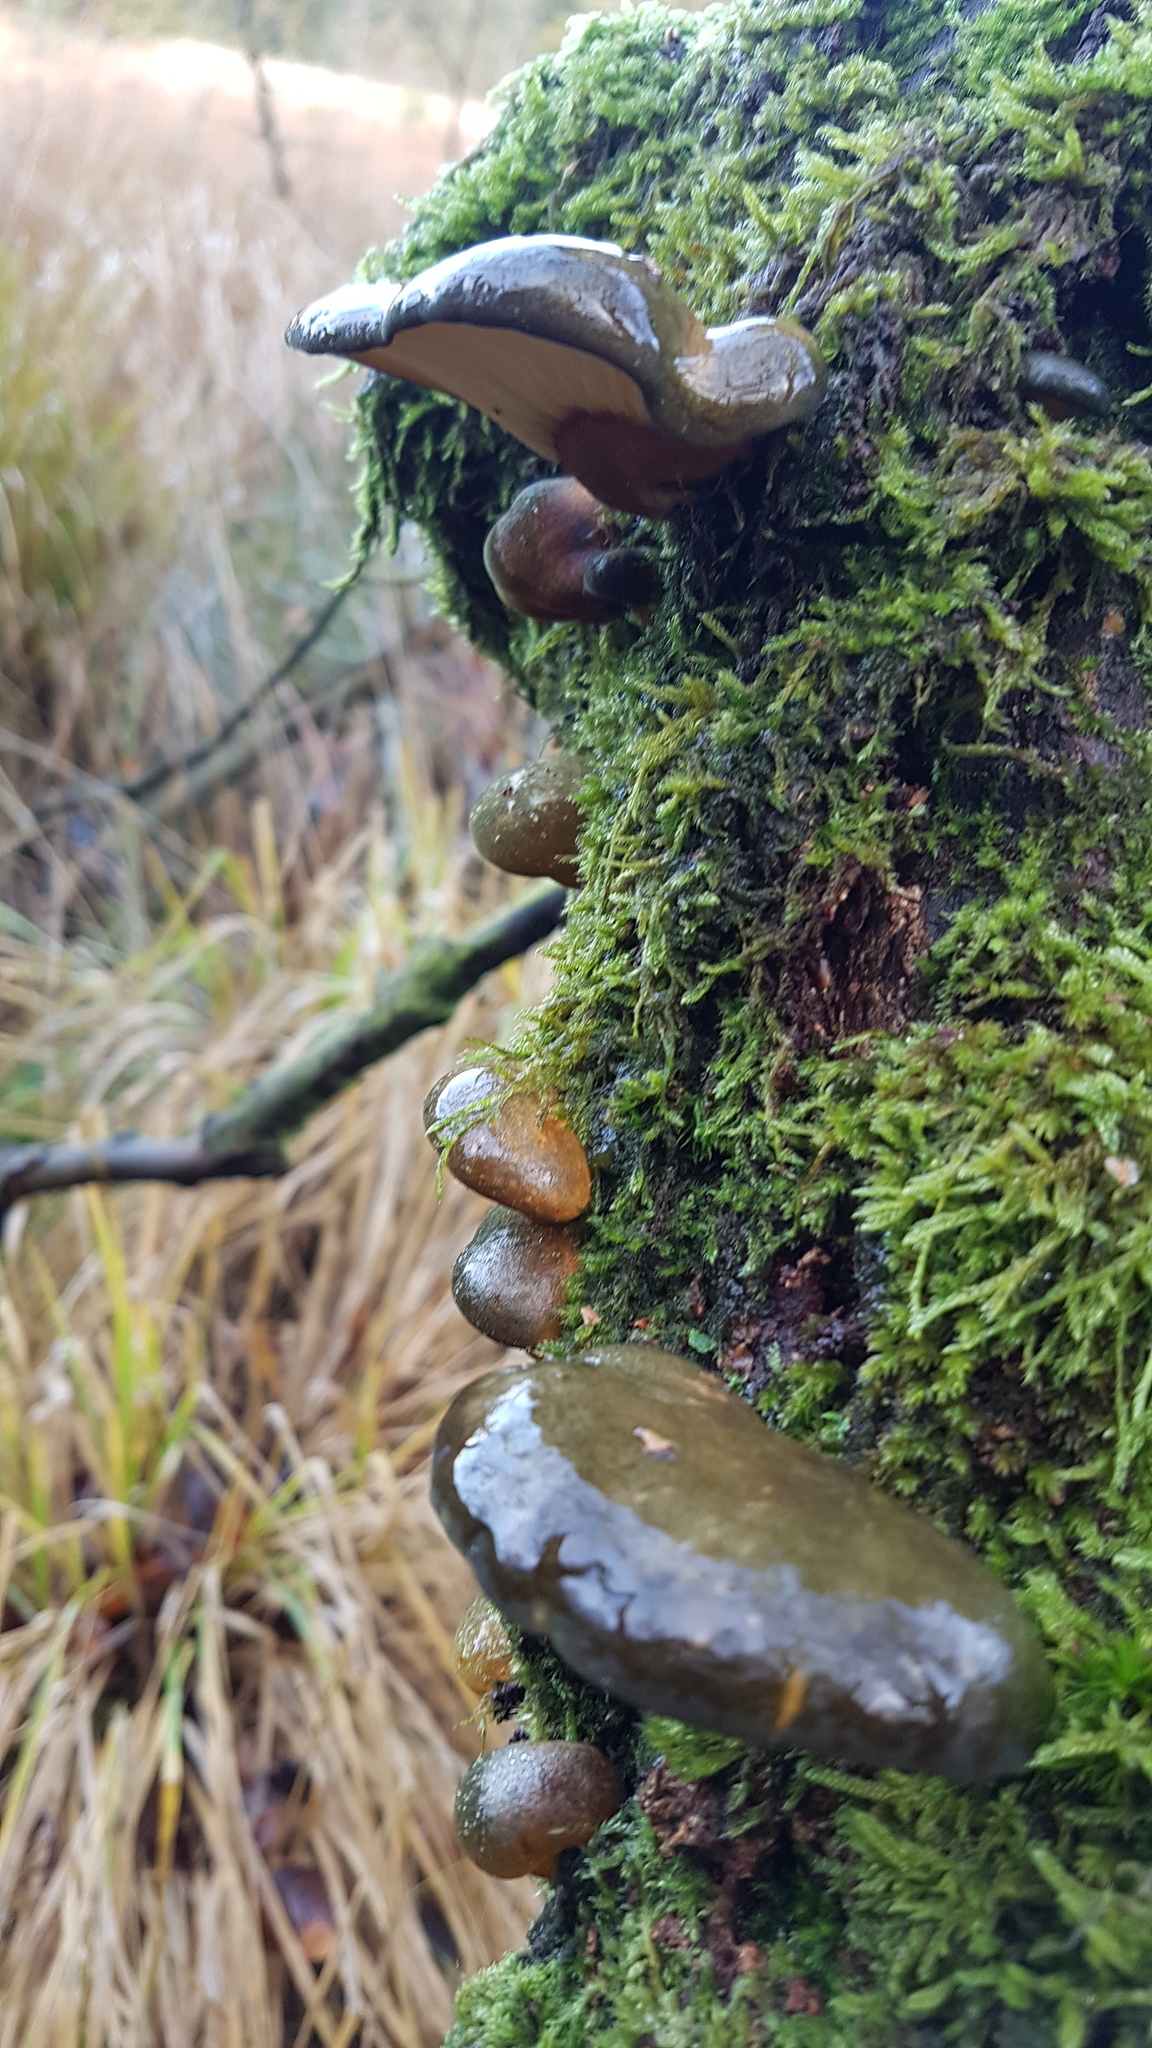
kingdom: Fungi
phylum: Basidiomycota
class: Agaricomycetes
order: Agaricales
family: Sarcomyxaceae
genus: Sarcomyxa
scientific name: Sarcomyxa serotina
